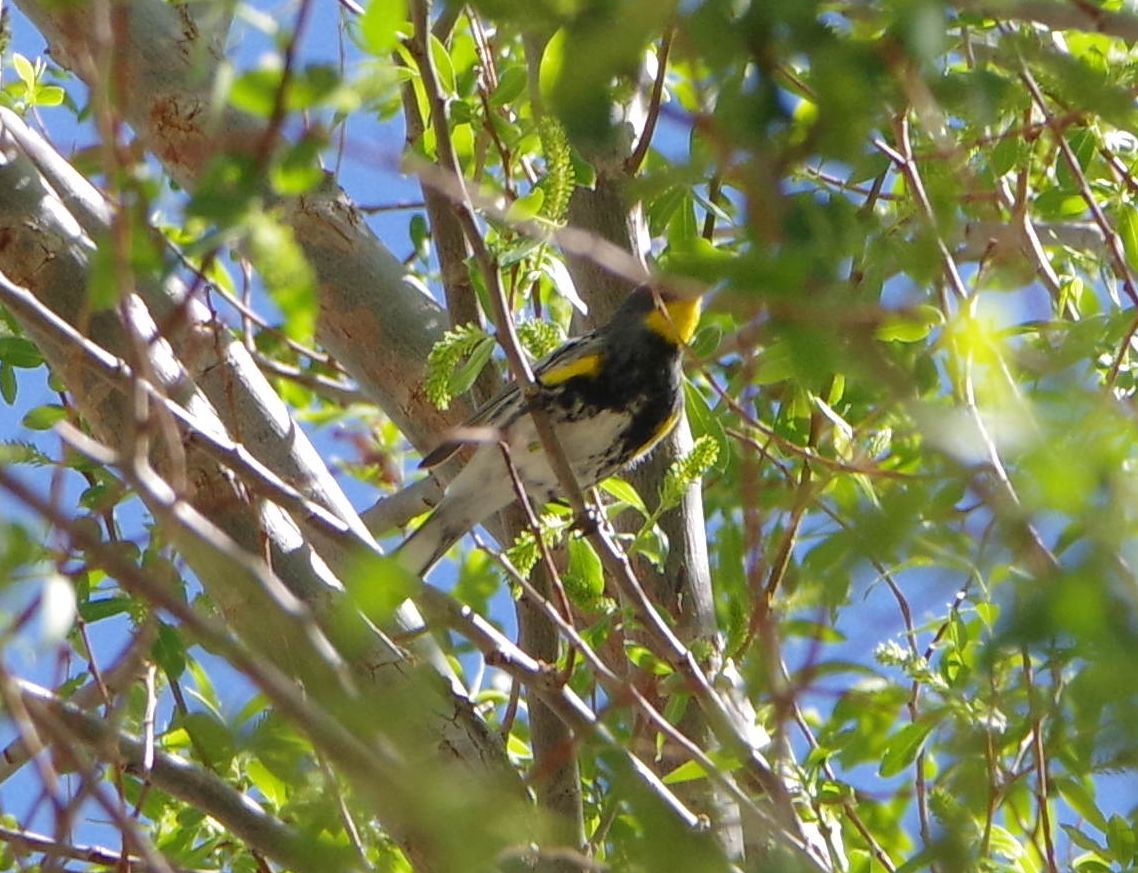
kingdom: Animalia
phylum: Chordata
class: Aves
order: Passeriformes
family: Parulidae
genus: Setophaga
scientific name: Setophaga coronata
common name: Myrtle warbler
